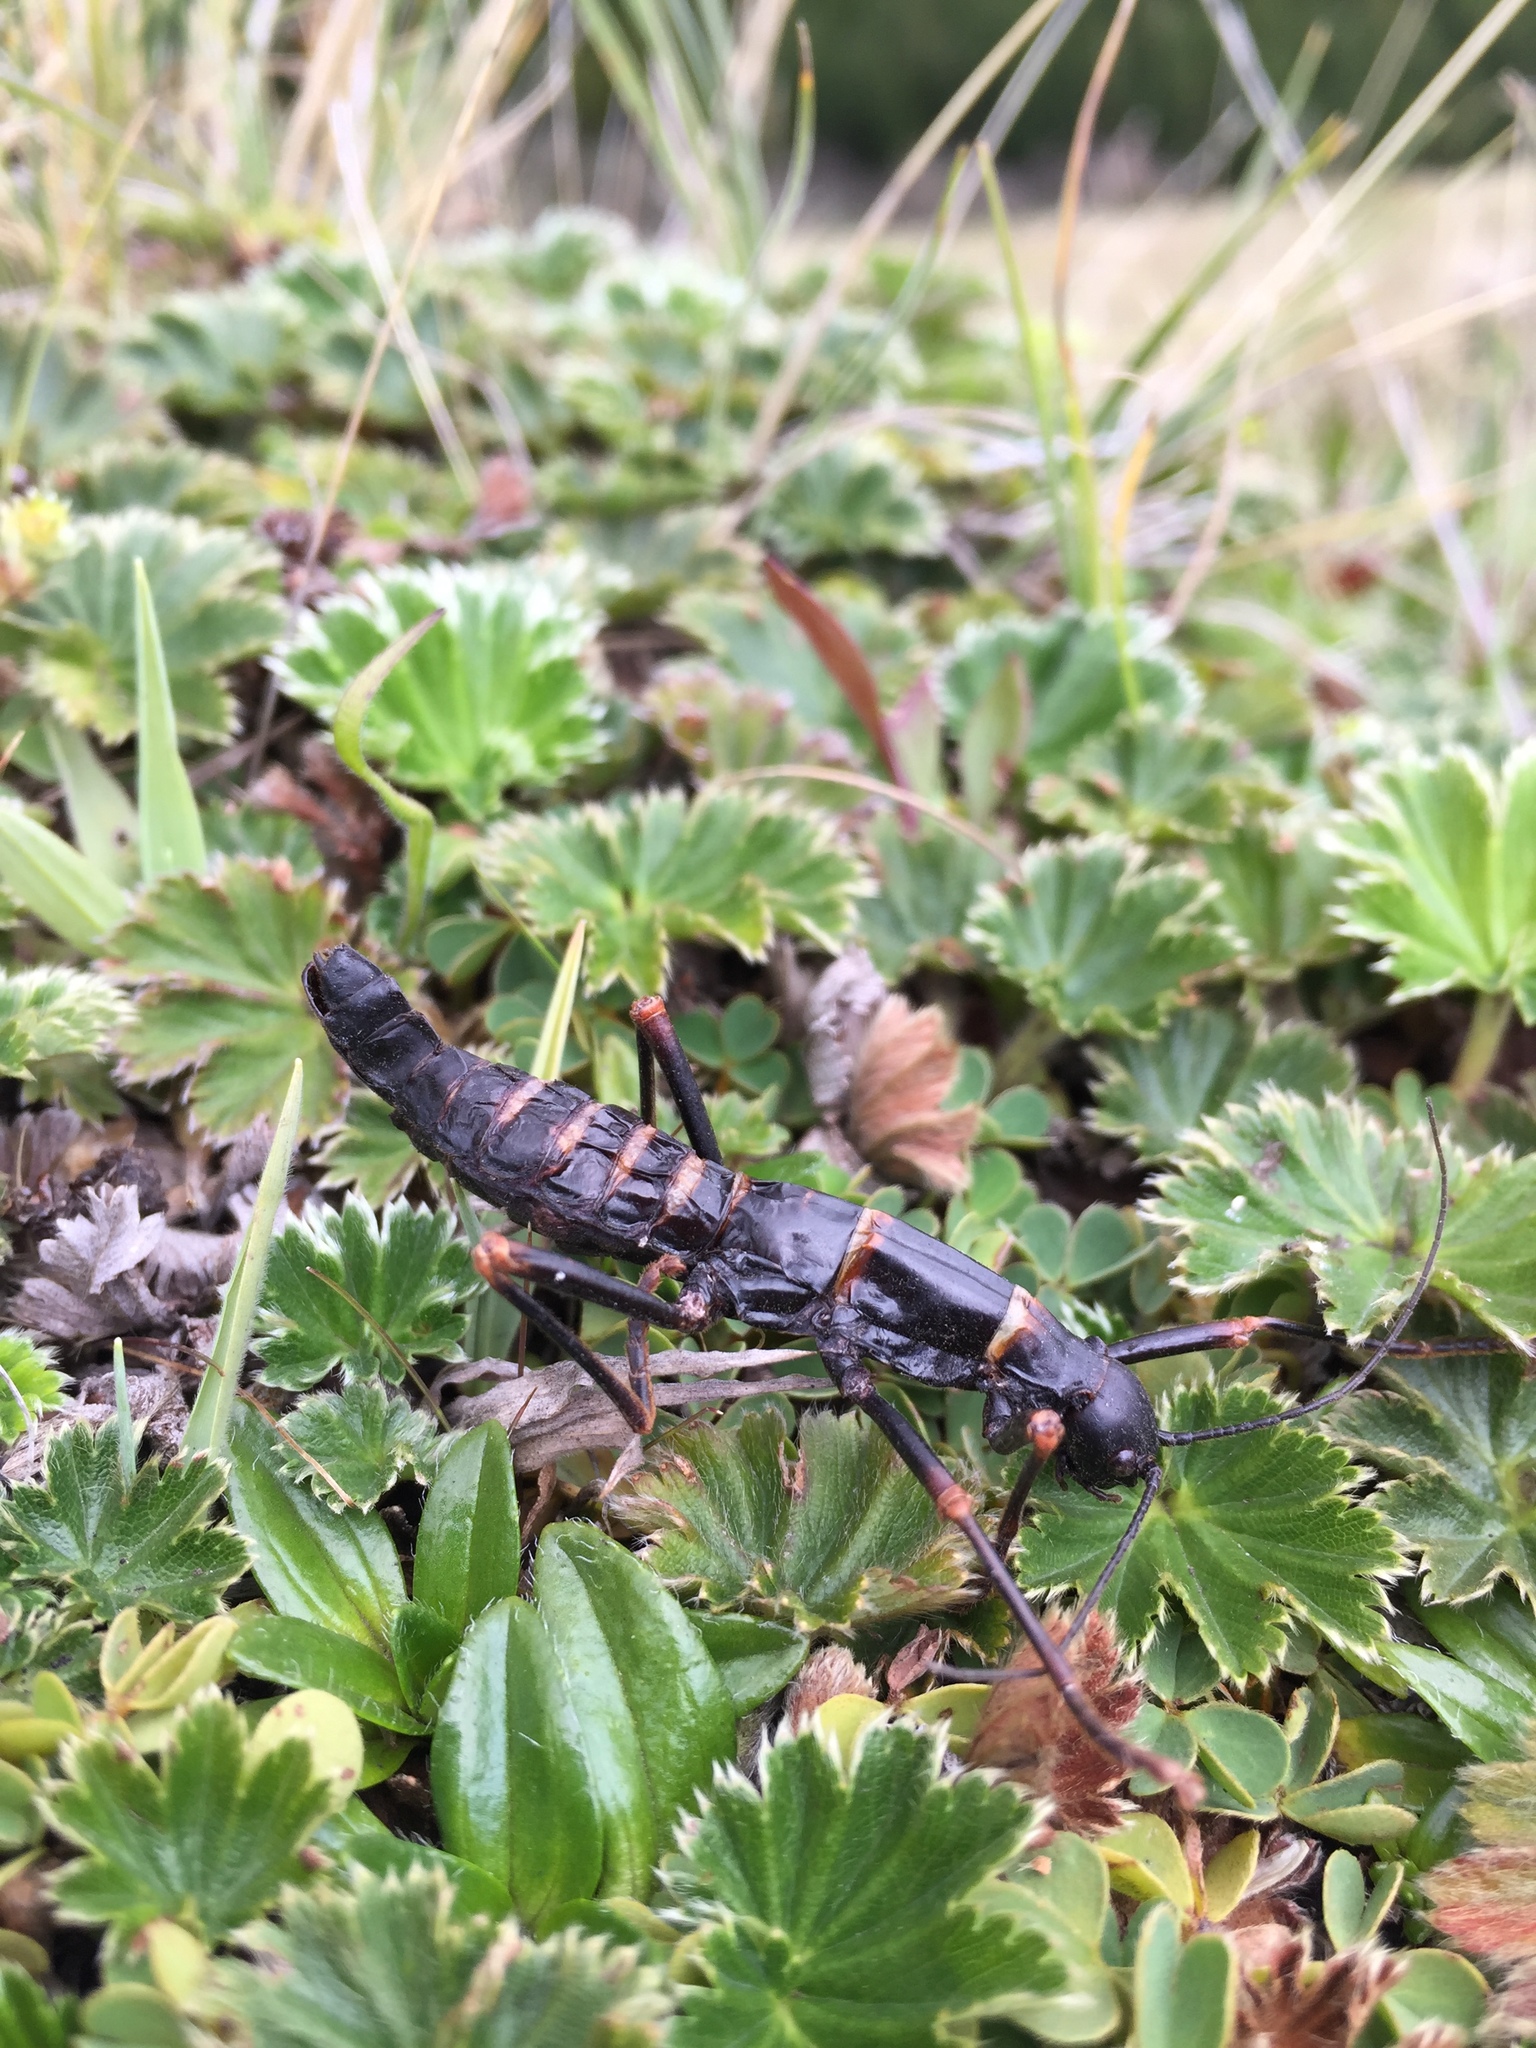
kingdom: Animalia
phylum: Arthropoda
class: Insecta
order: Phasmida
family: Pseudophasmatidae
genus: Monticomorpha
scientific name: Monticomorpha flavolimbata
